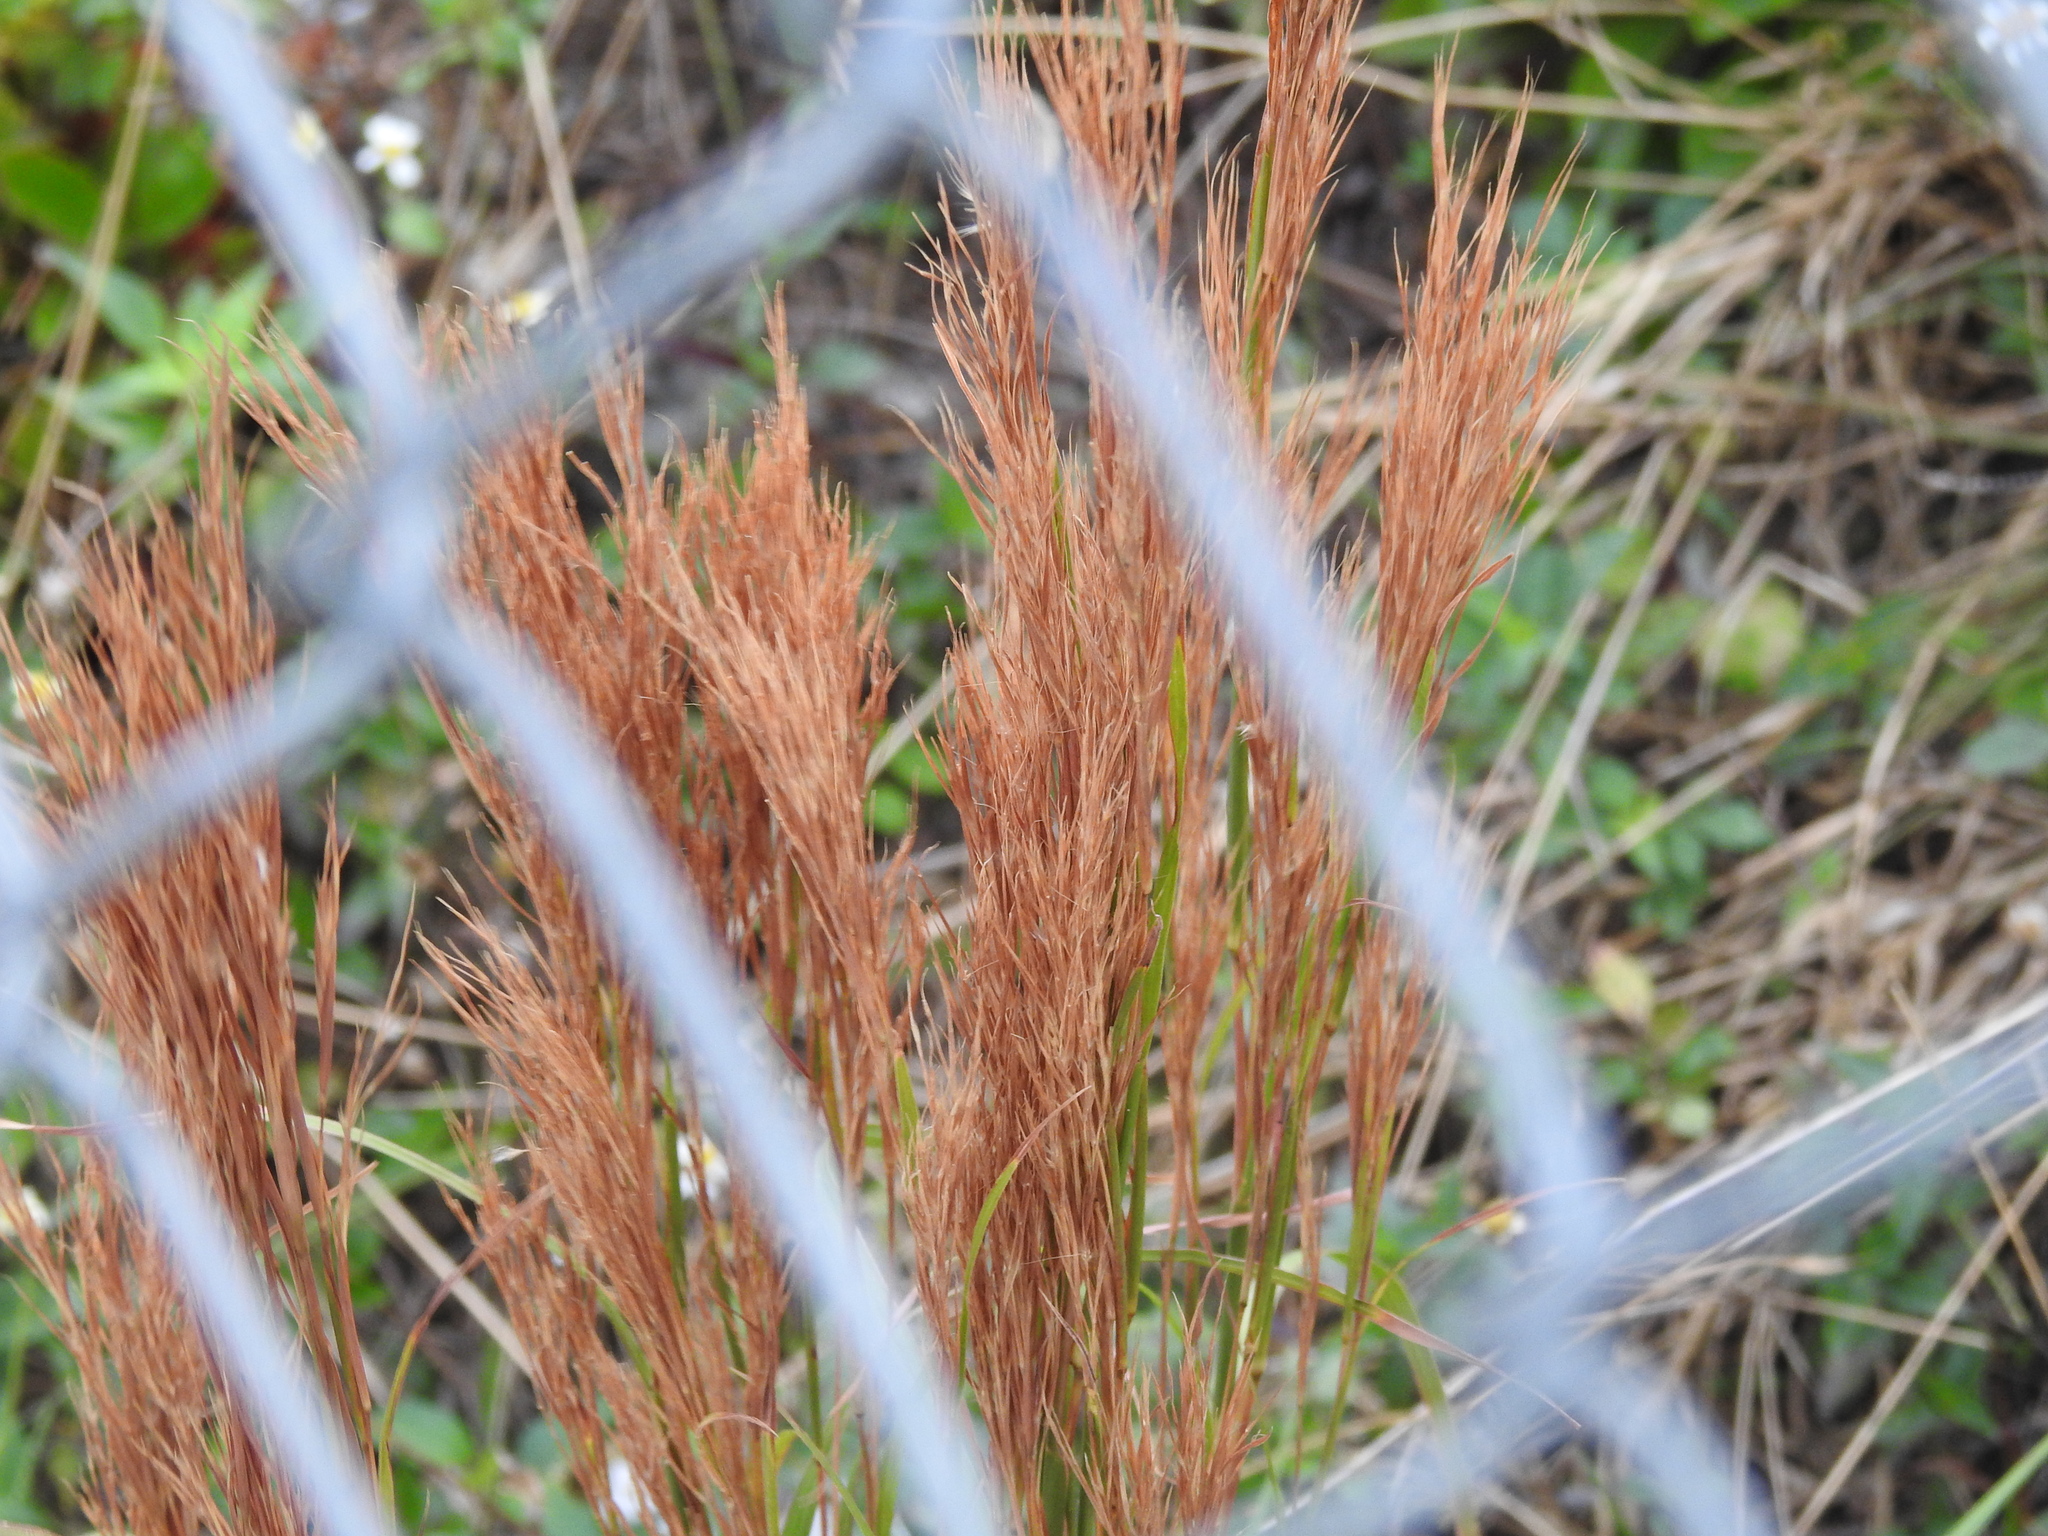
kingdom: Plantae
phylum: Tracheophyta
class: Liliopsida
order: Poales
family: Poaceae
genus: Andropogon
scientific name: Andropogon tenuispatheus
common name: Bushy bluestem
